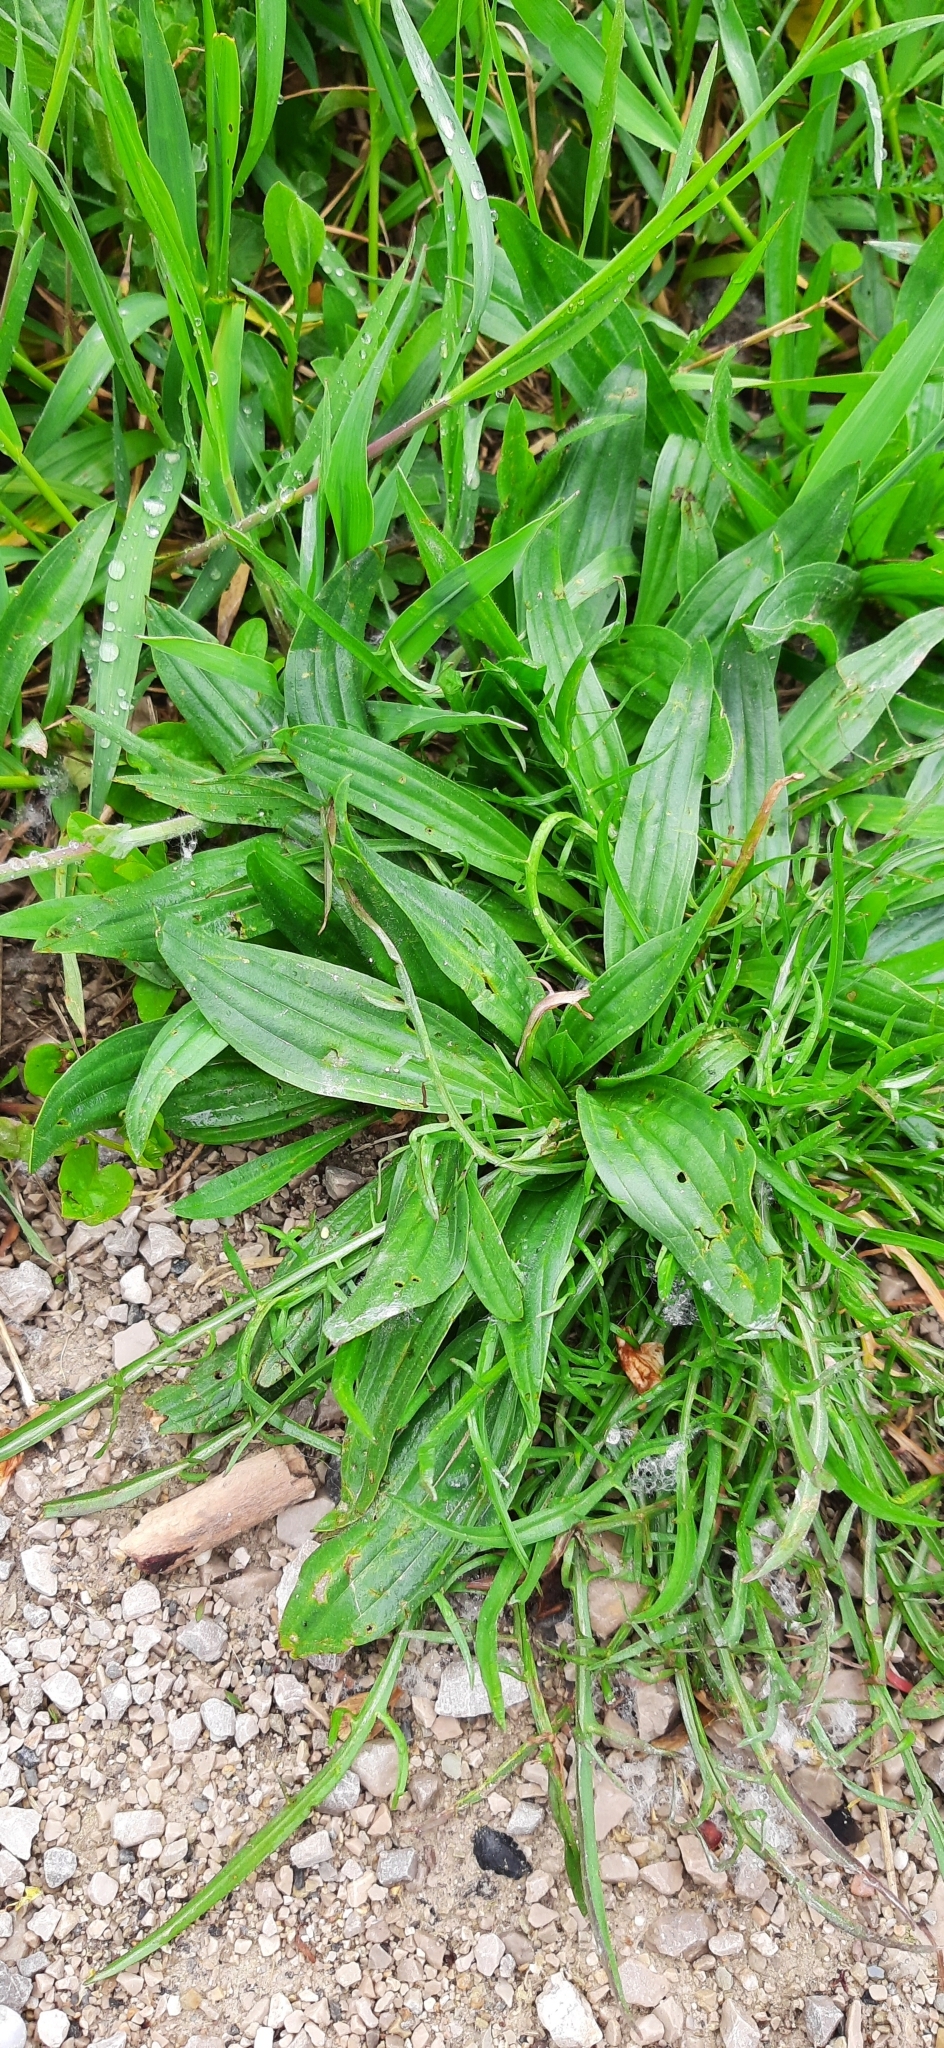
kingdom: Plantae
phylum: Tracheophyta
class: Magnoliopsida
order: Lamiales
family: Plantaginaceae
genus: Plantago
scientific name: Plantago lanceolata
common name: Ribwort plantain
